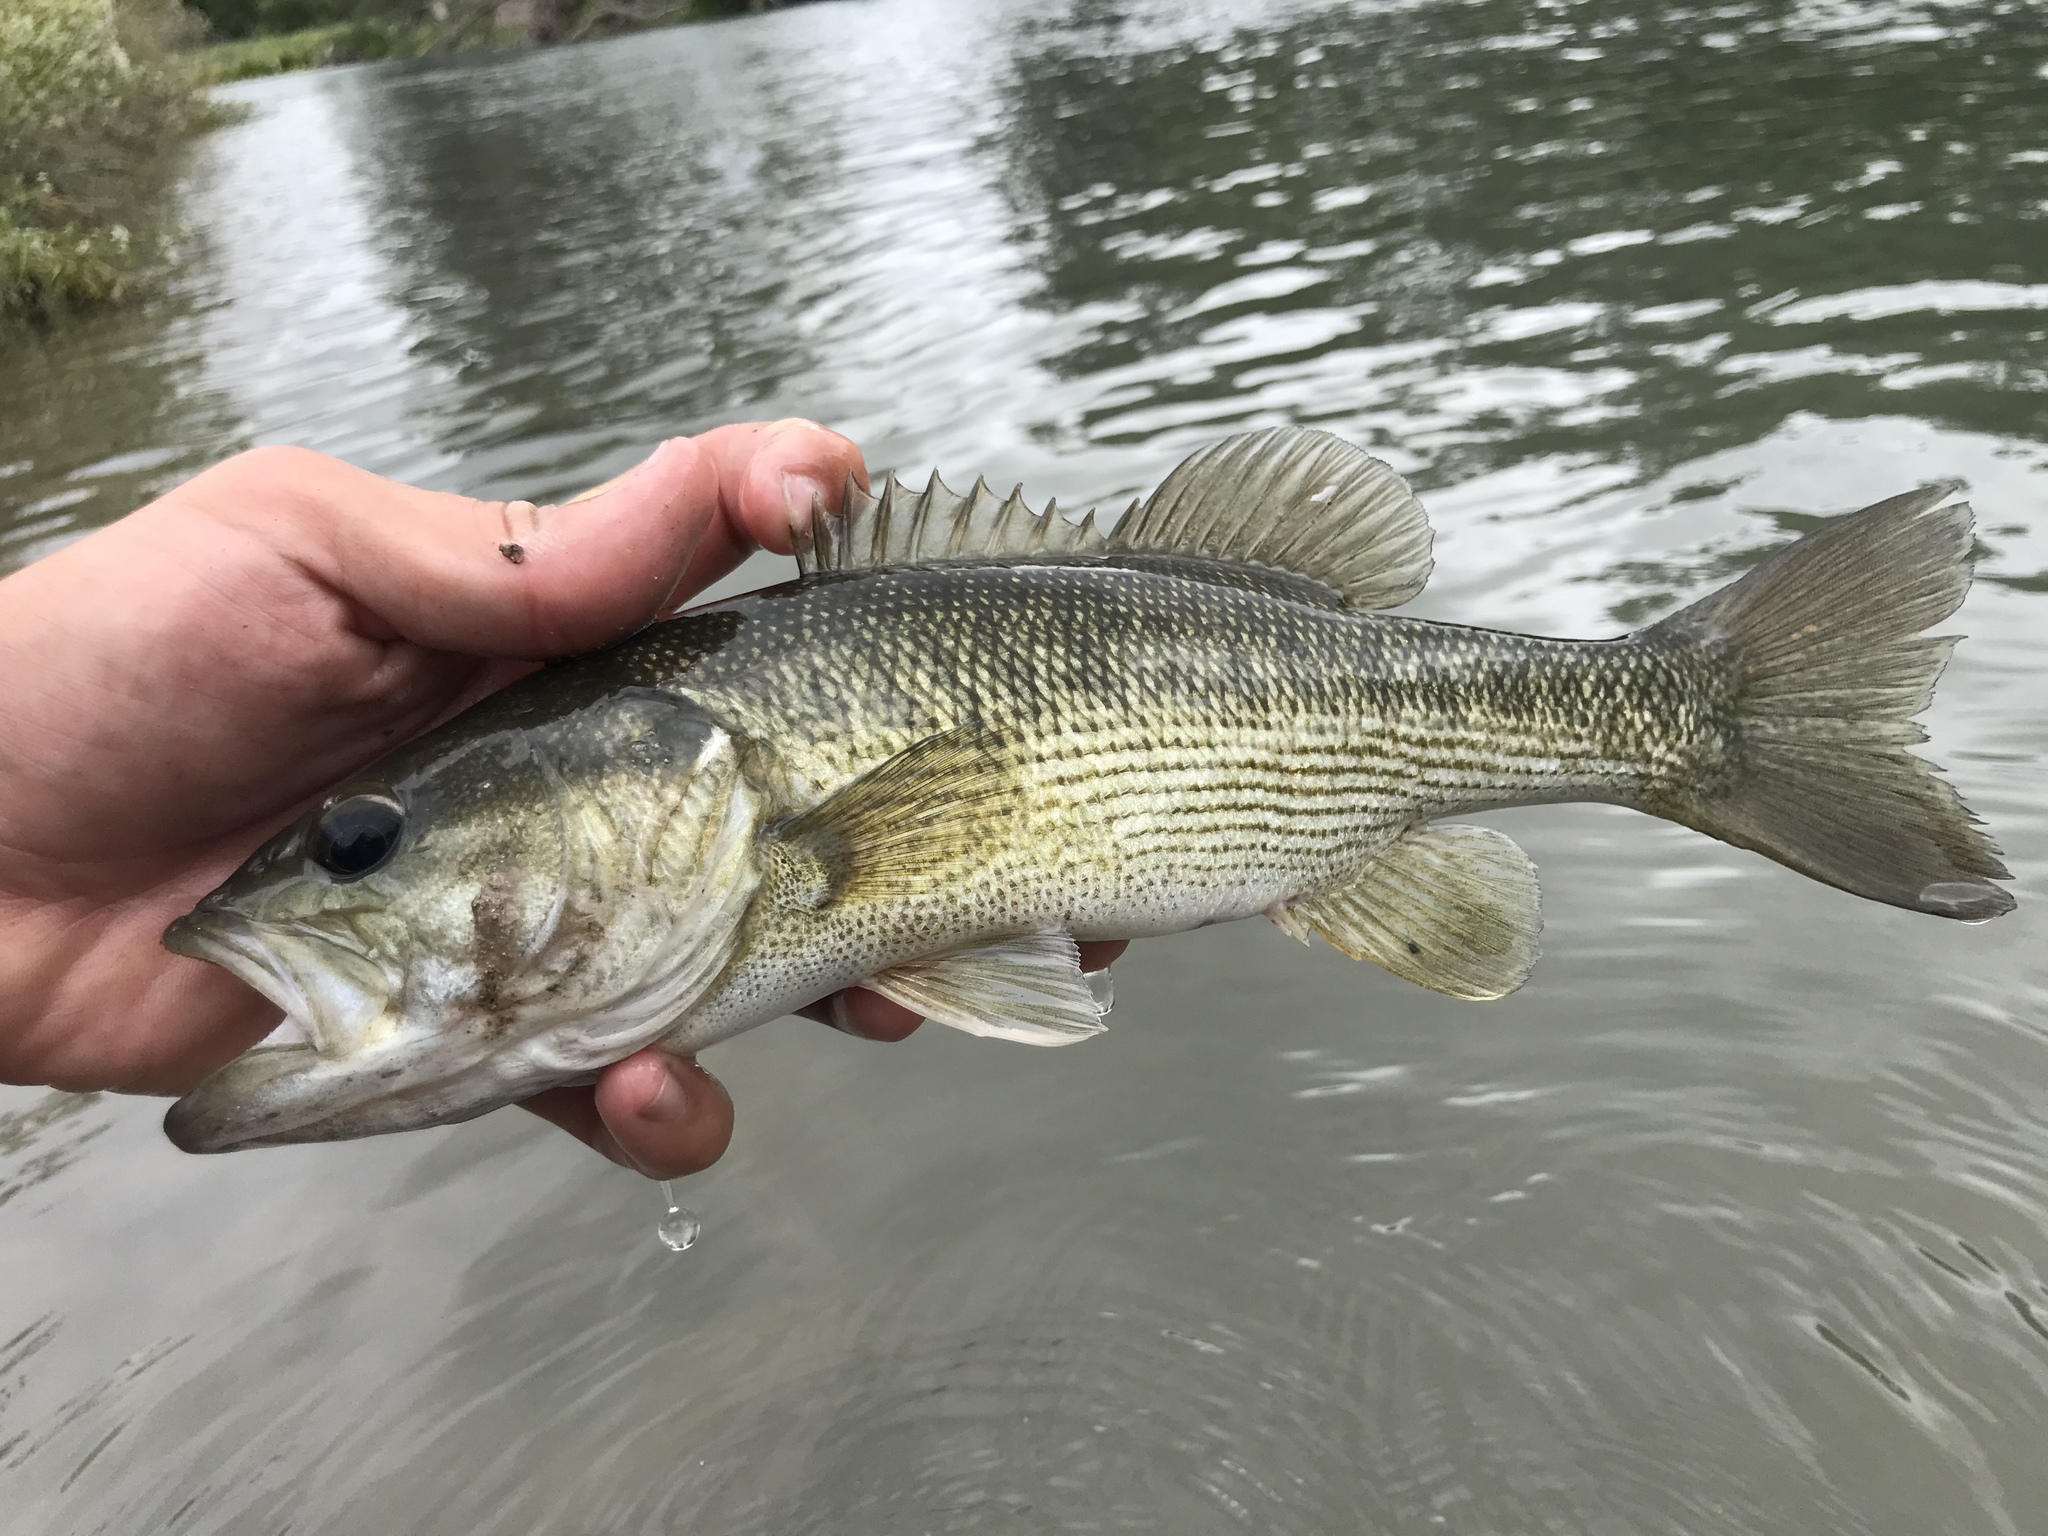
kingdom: Animalia
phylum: Chordata
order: Perciformes
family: Centrarchidae
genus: Micropterus
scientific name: Micropterus treculii
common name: Guadalupe bass
